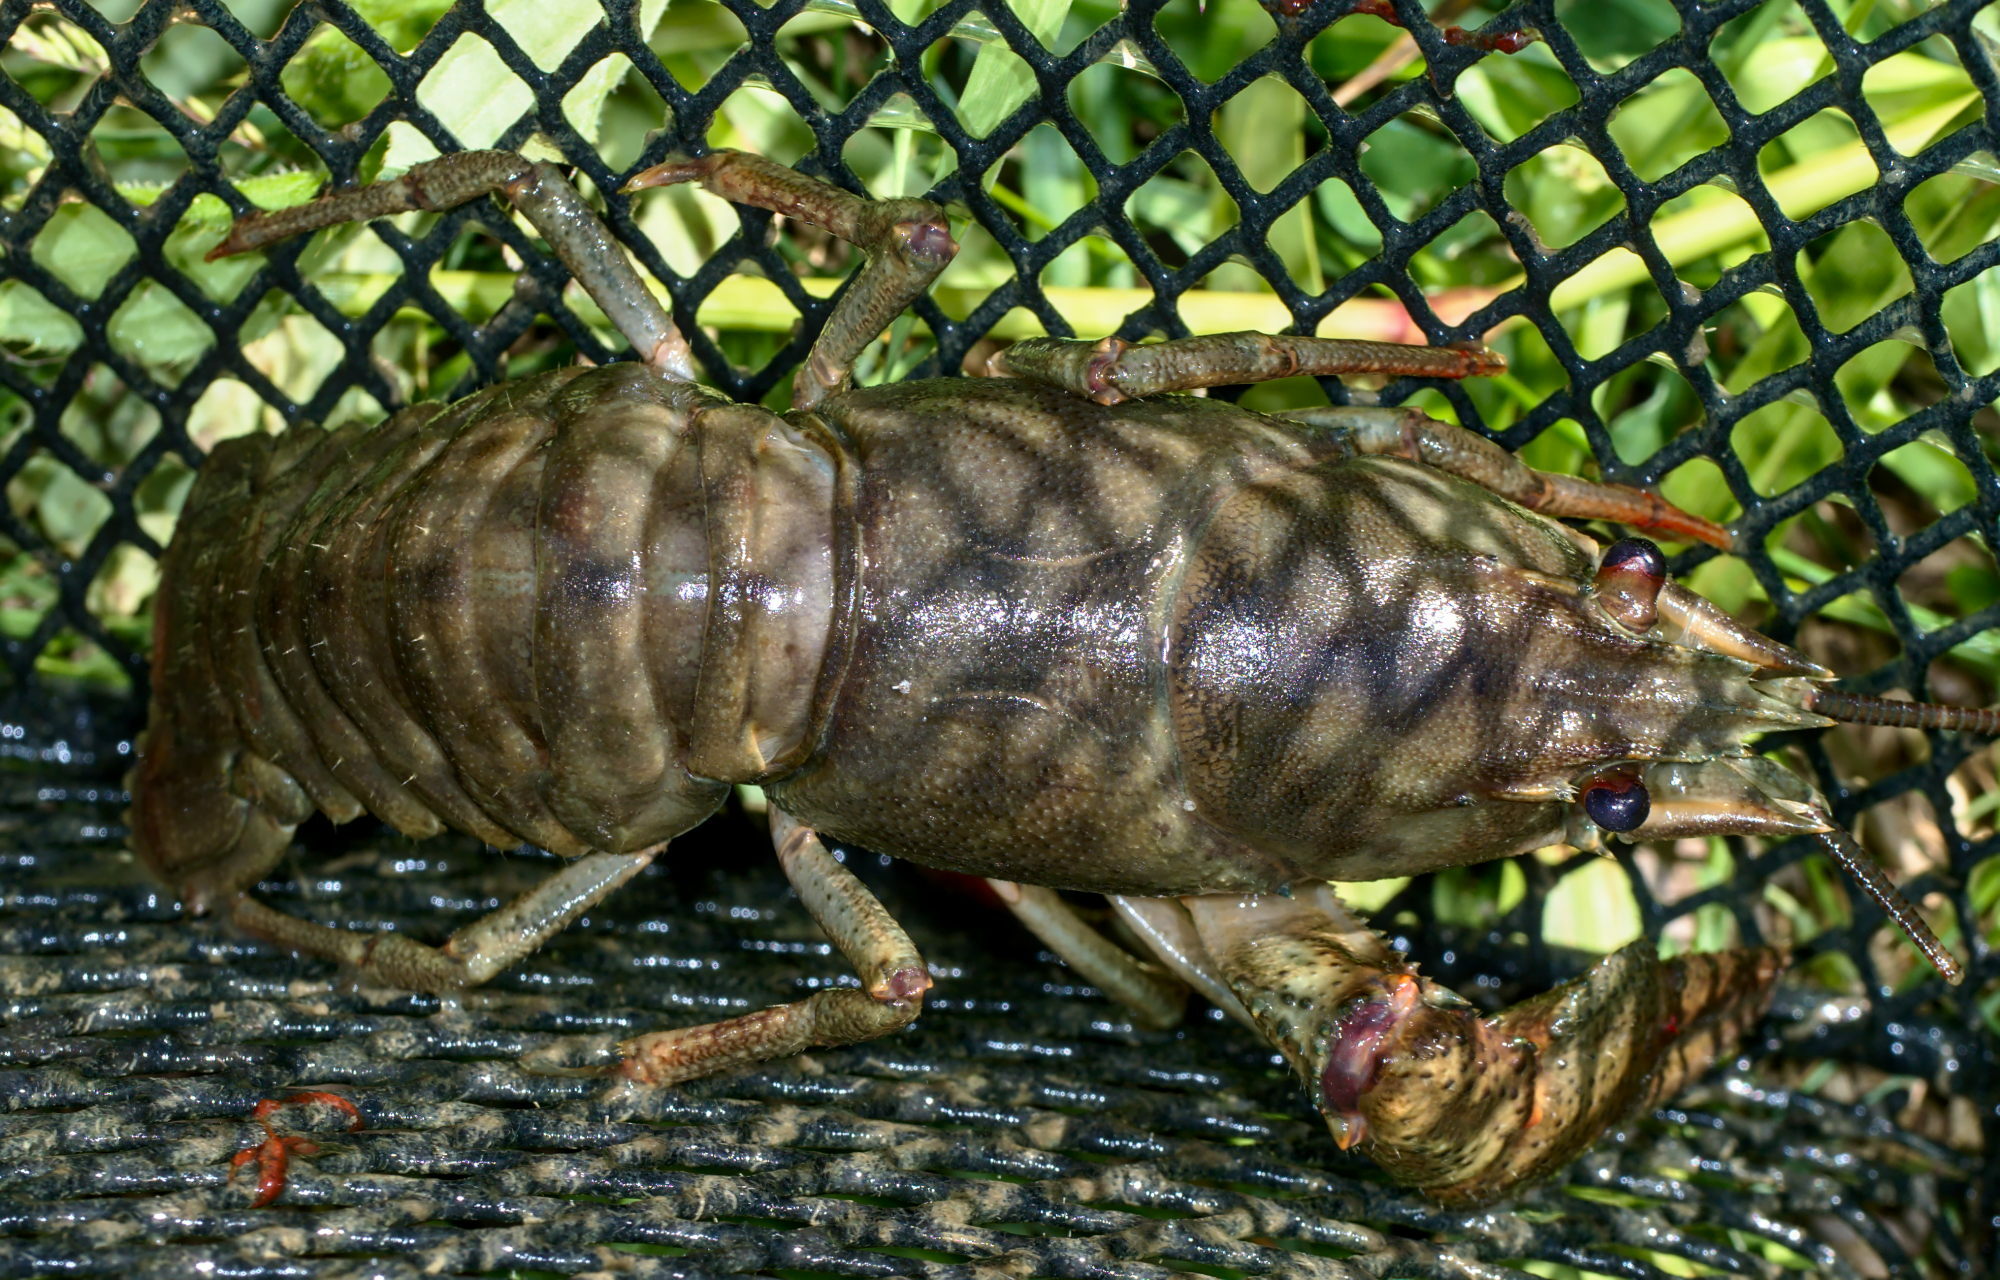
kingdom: Animalia
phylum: Arthropoda
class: Malacostraca
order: Decapoda
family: Astacidae
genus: Astacus
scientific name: Astacus astacus
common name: Noble crayfish
